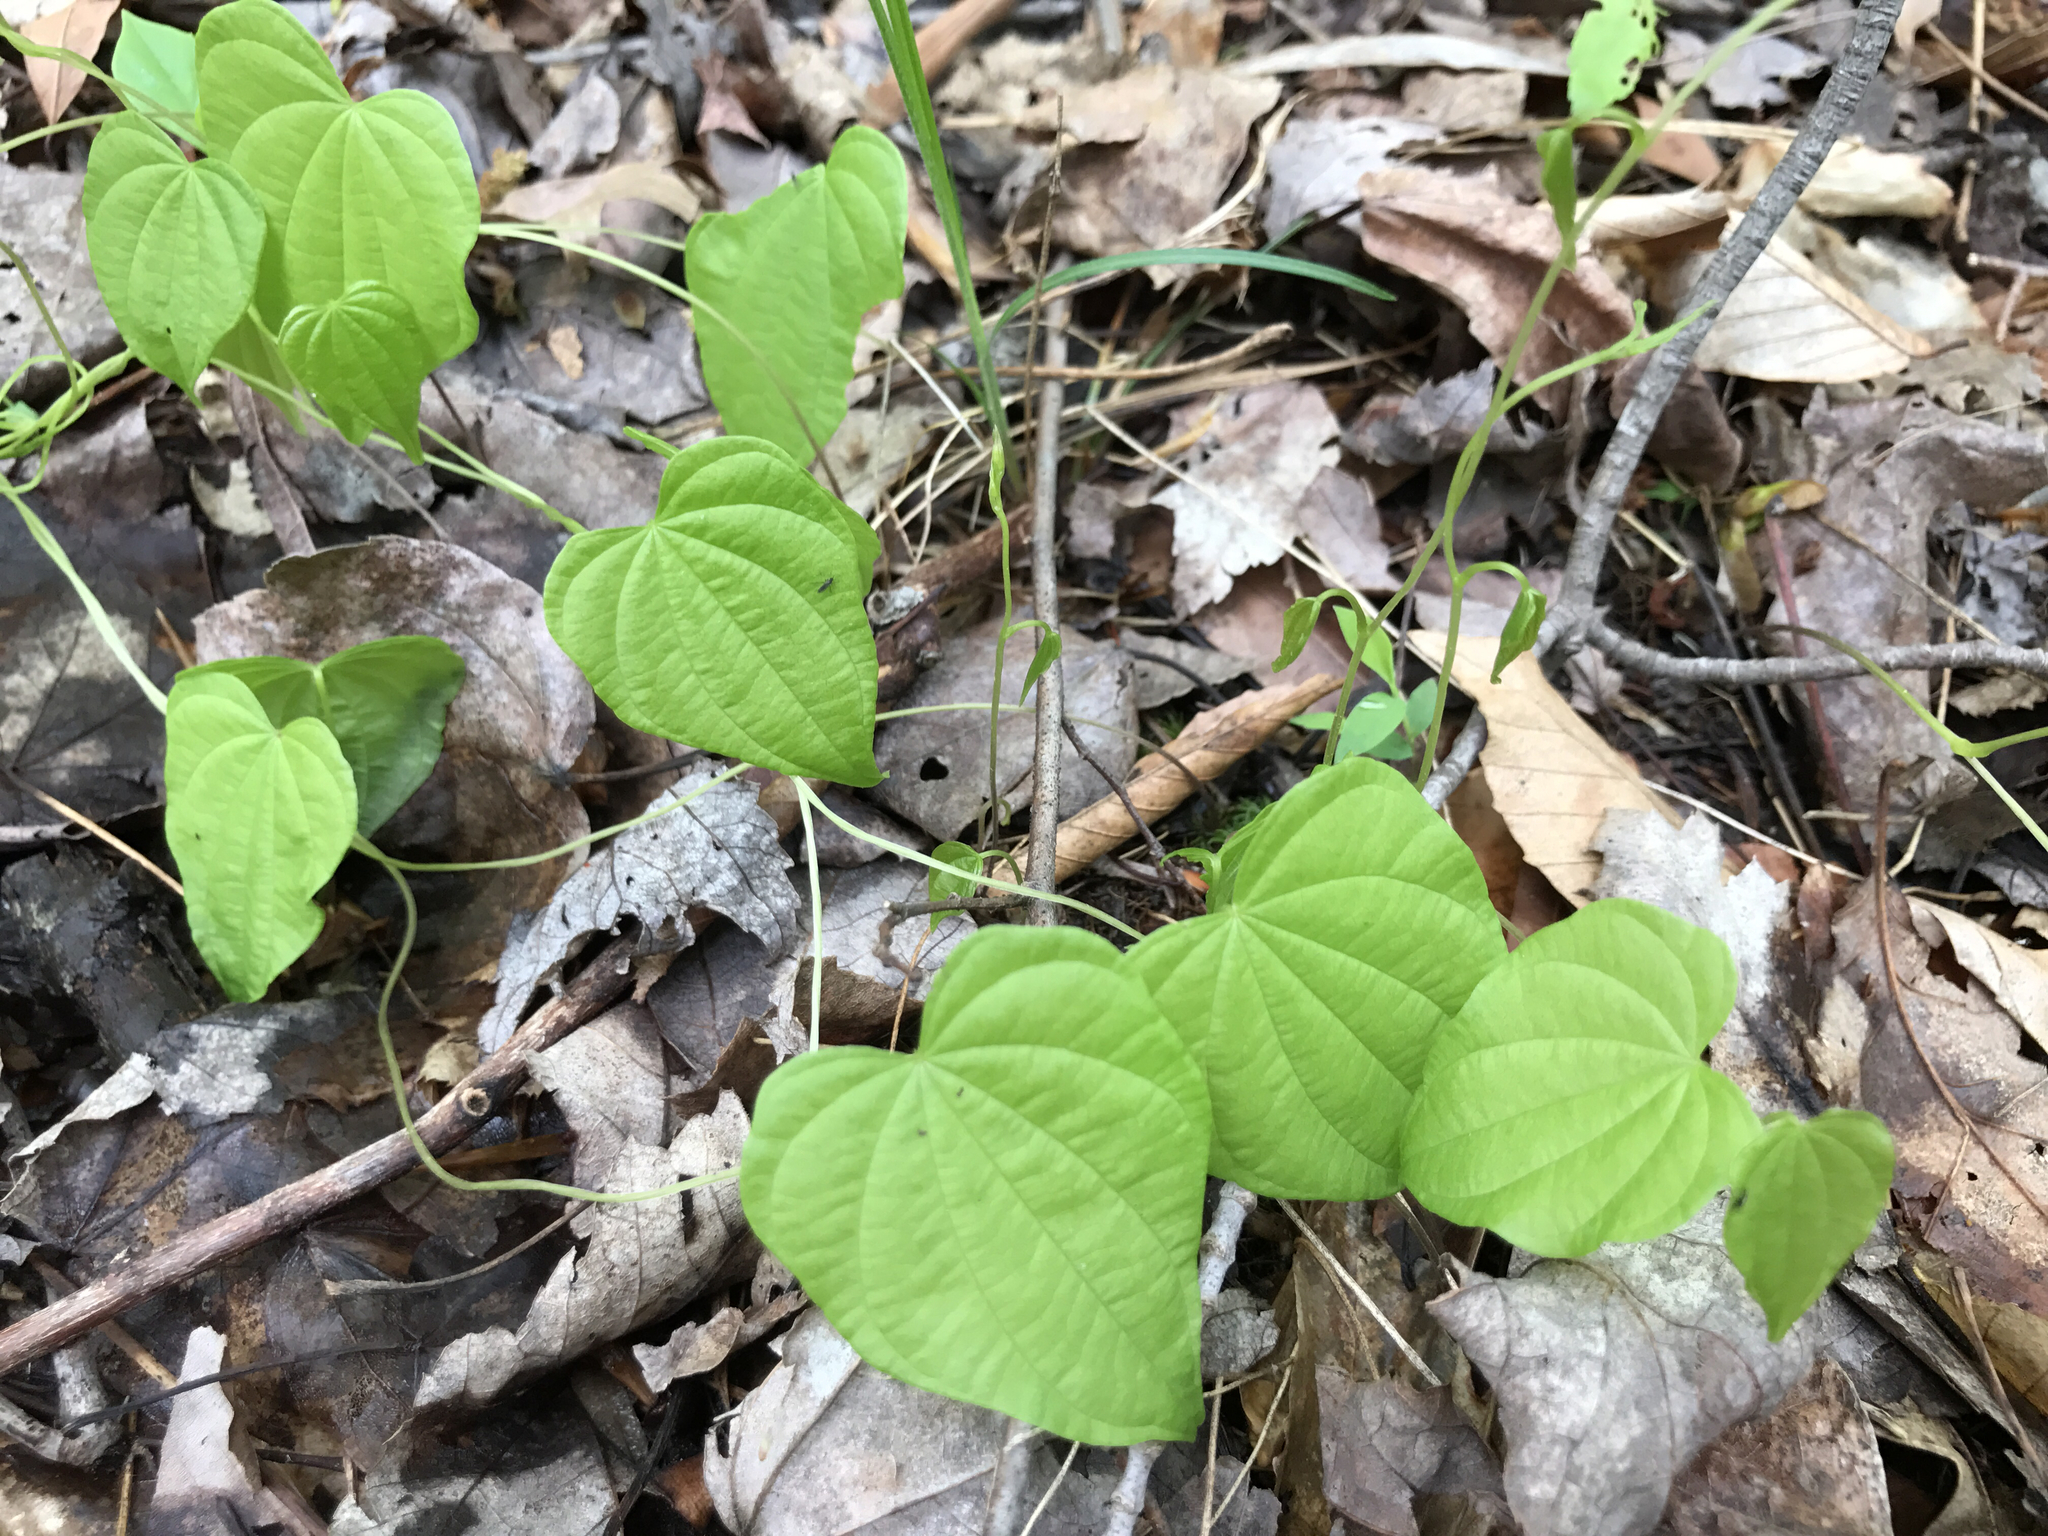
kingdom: Plantae
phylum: Tracheophyta
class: Liliopsida
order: Dioscoreales
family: Dioscoreaceae
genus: Dioscorea
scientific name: Dioscorea villosa
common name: Wild yam
